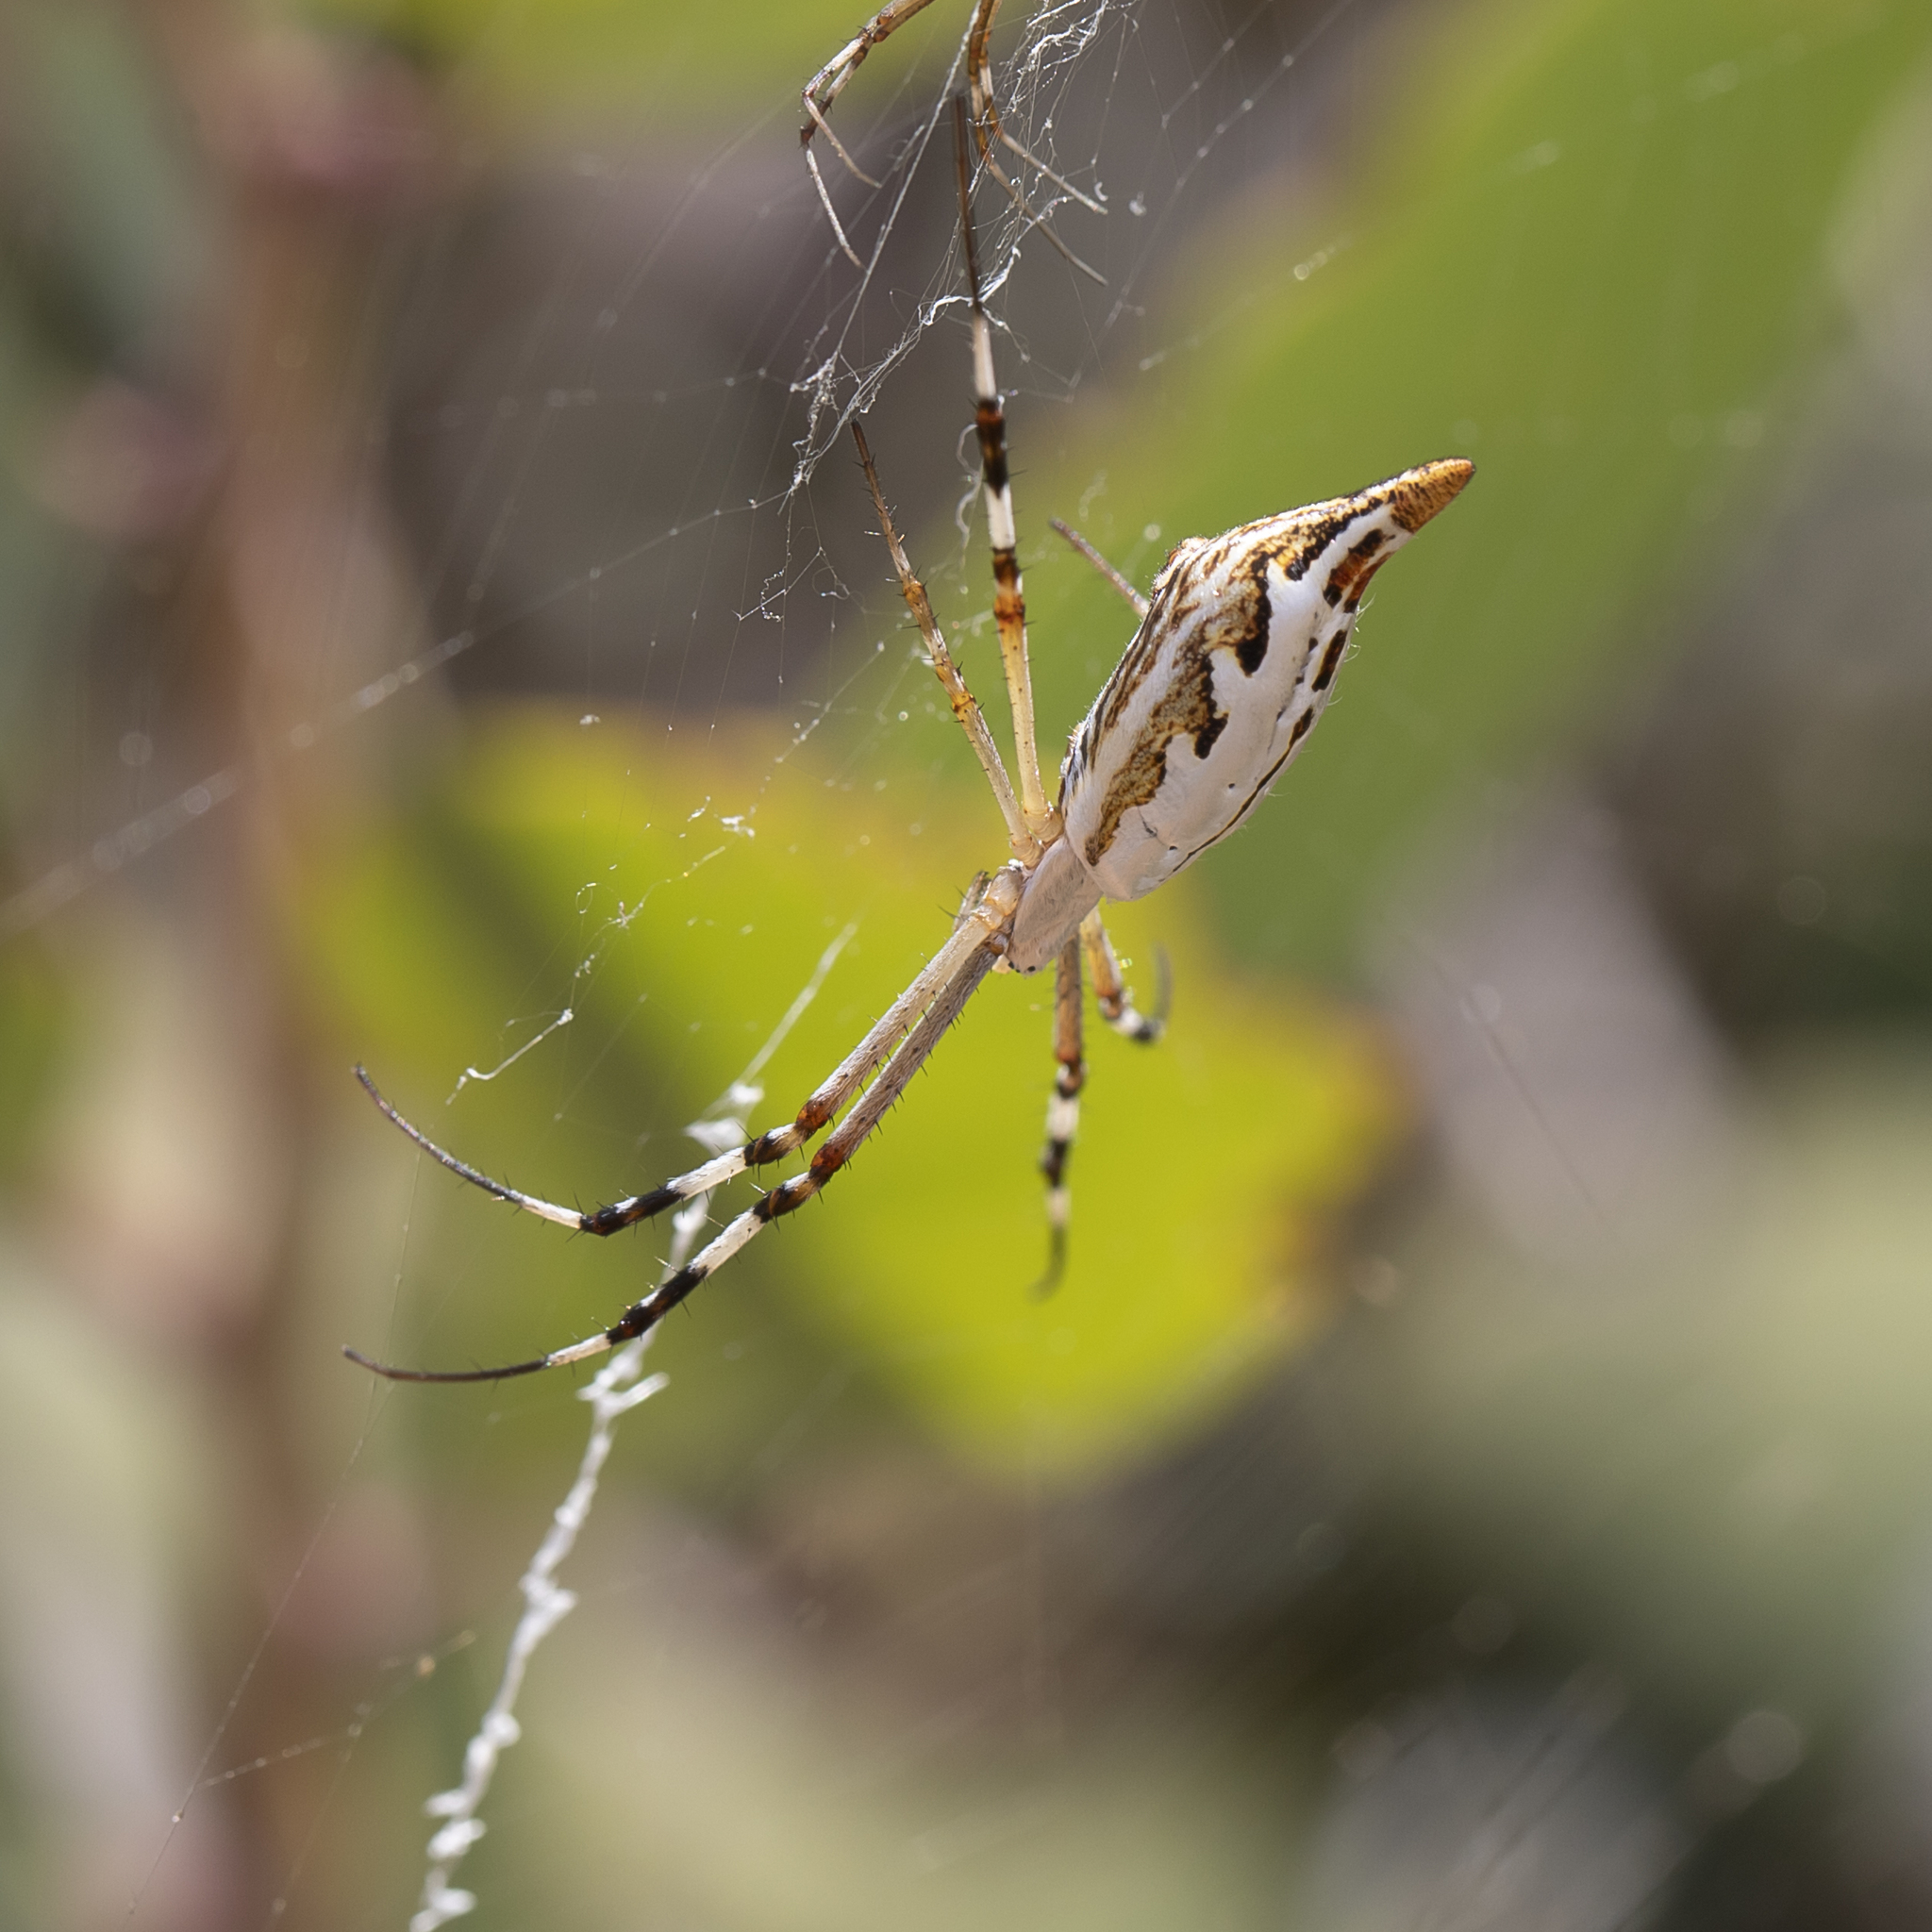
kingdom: Animalia
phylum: Arthropoda
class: Arachnida
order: Araneae
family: Araneidae
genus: Argiope
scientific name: Argiope protensa
